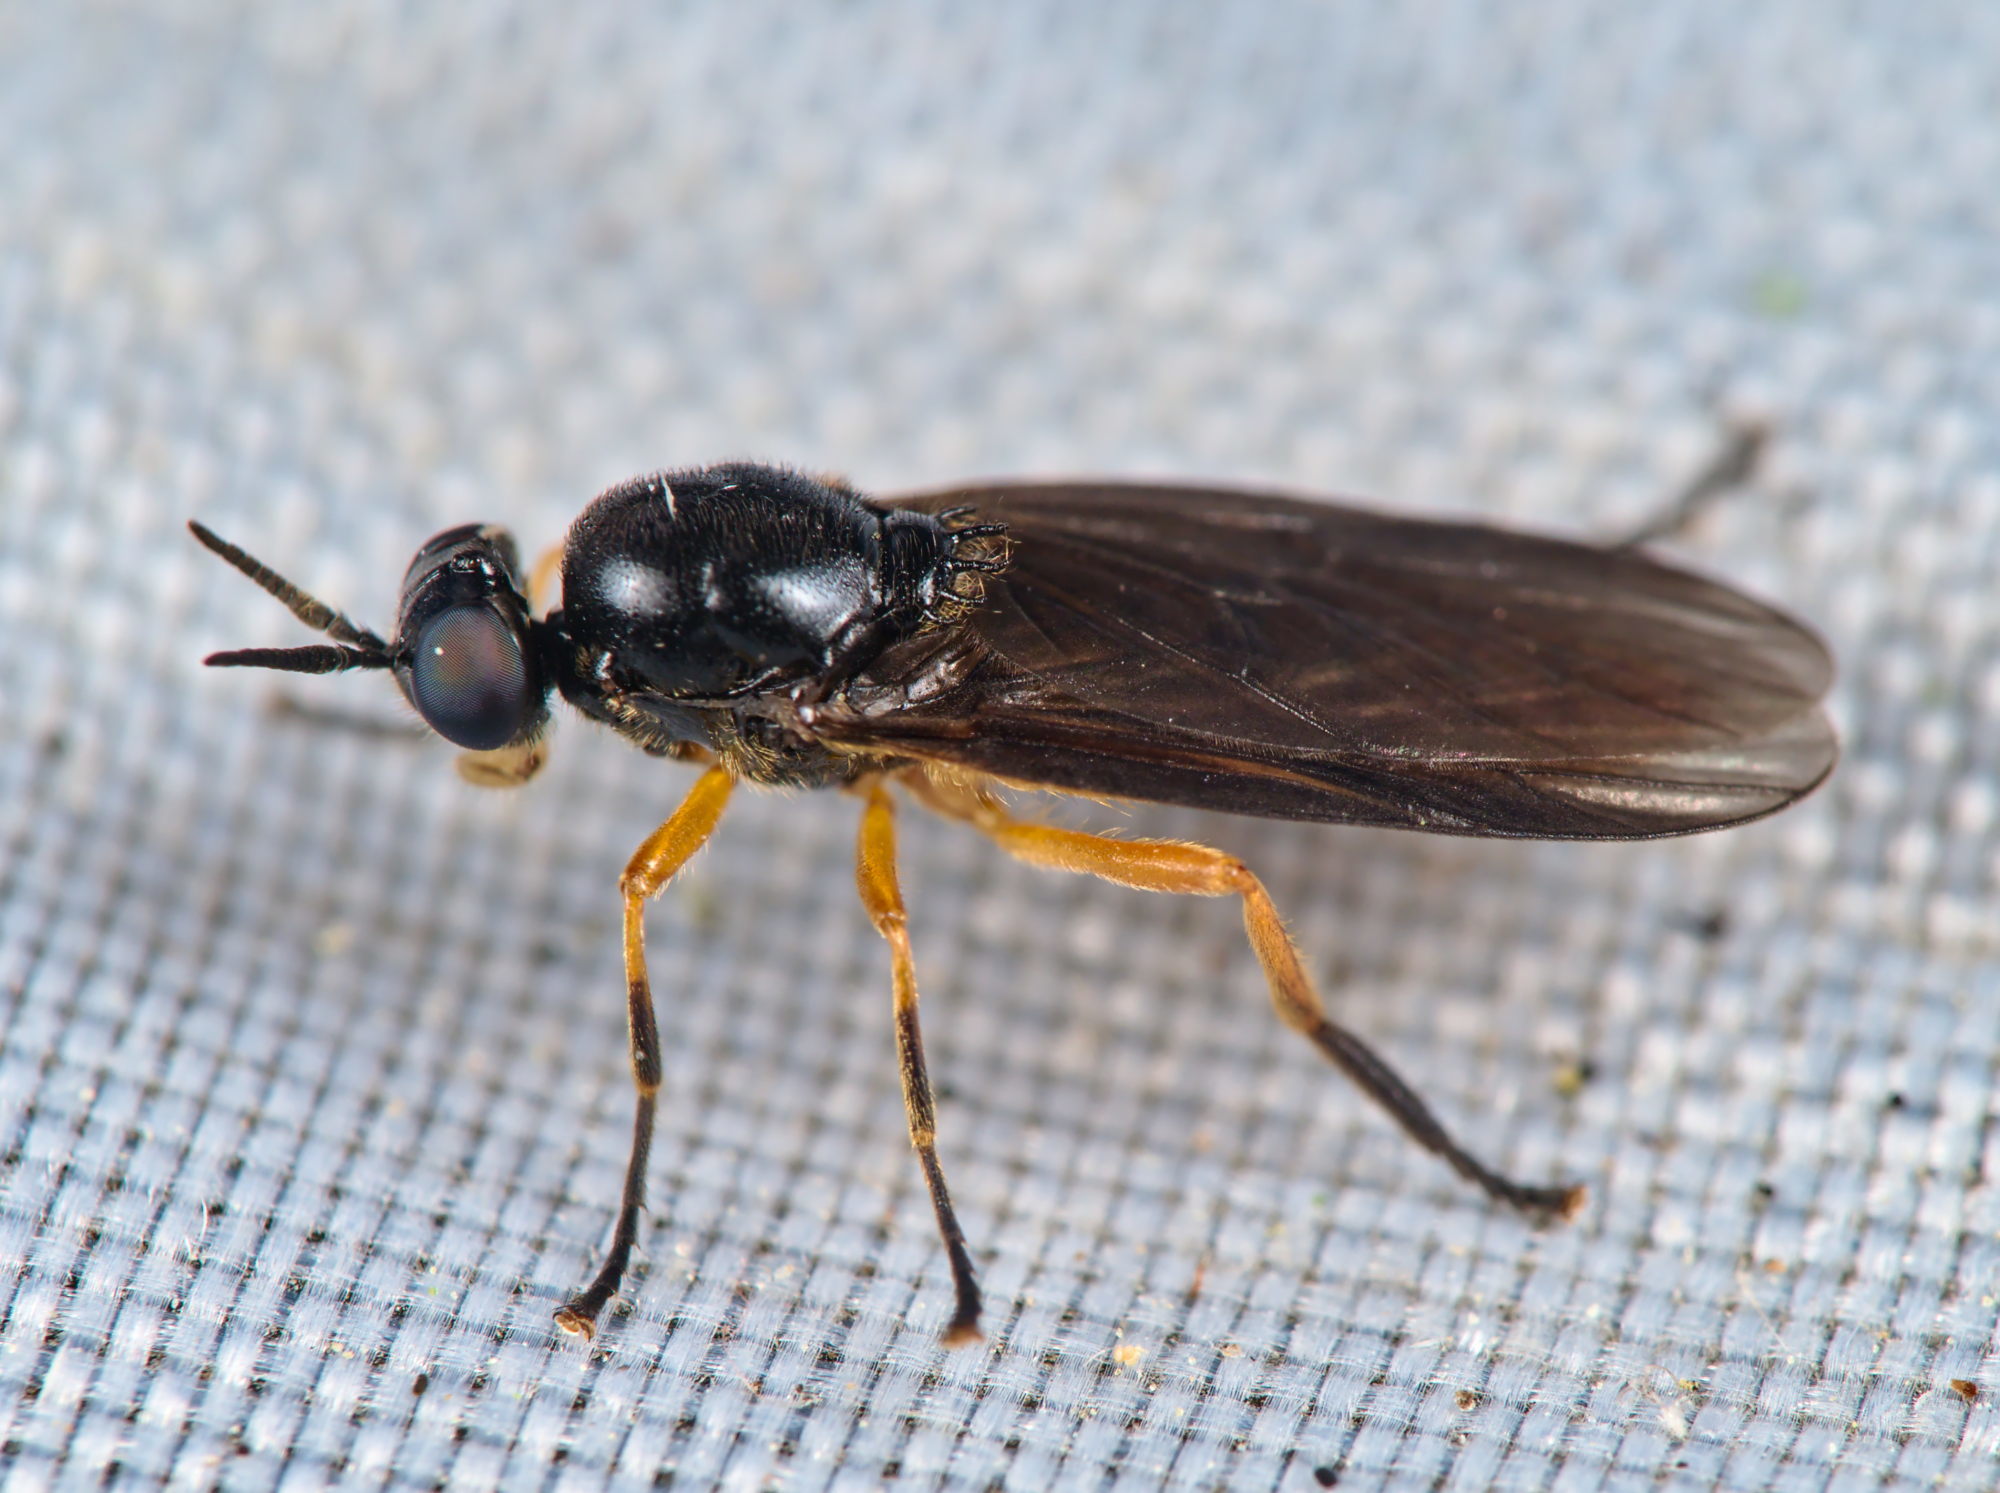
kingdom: Animalia
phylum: Arthropoda
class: Insecta
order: Diptera
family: Stratiomyidae
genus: Beris
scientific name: Beris clavipes
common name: Scarce orange legionnaire
